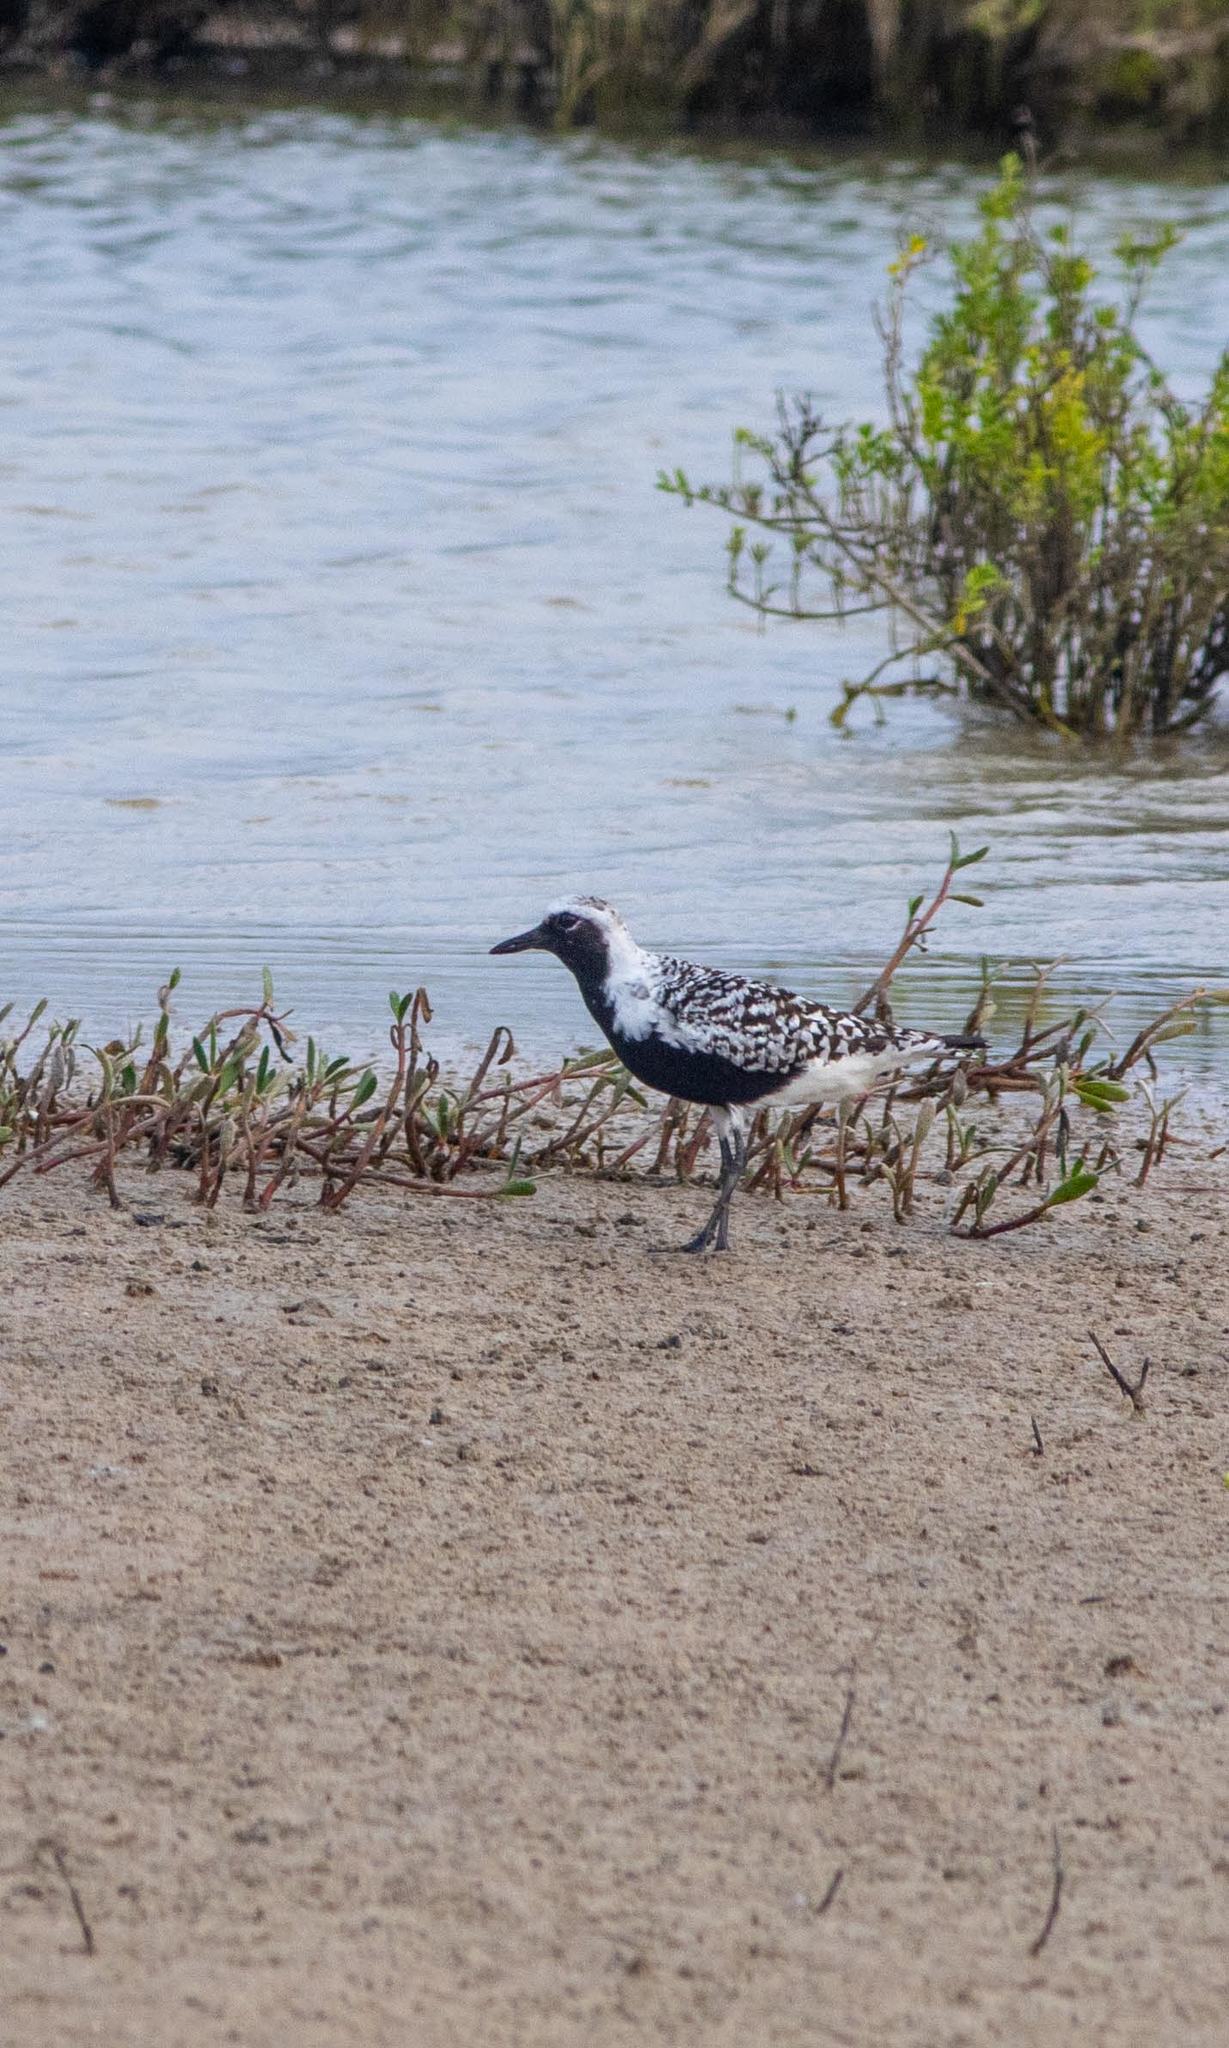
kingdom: Animalia
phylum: Chordata
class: Aves
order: Charadriiformes
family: Charadriidae
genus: Pluvialis
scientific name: Pluvialis squatarola
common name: Grey plover
